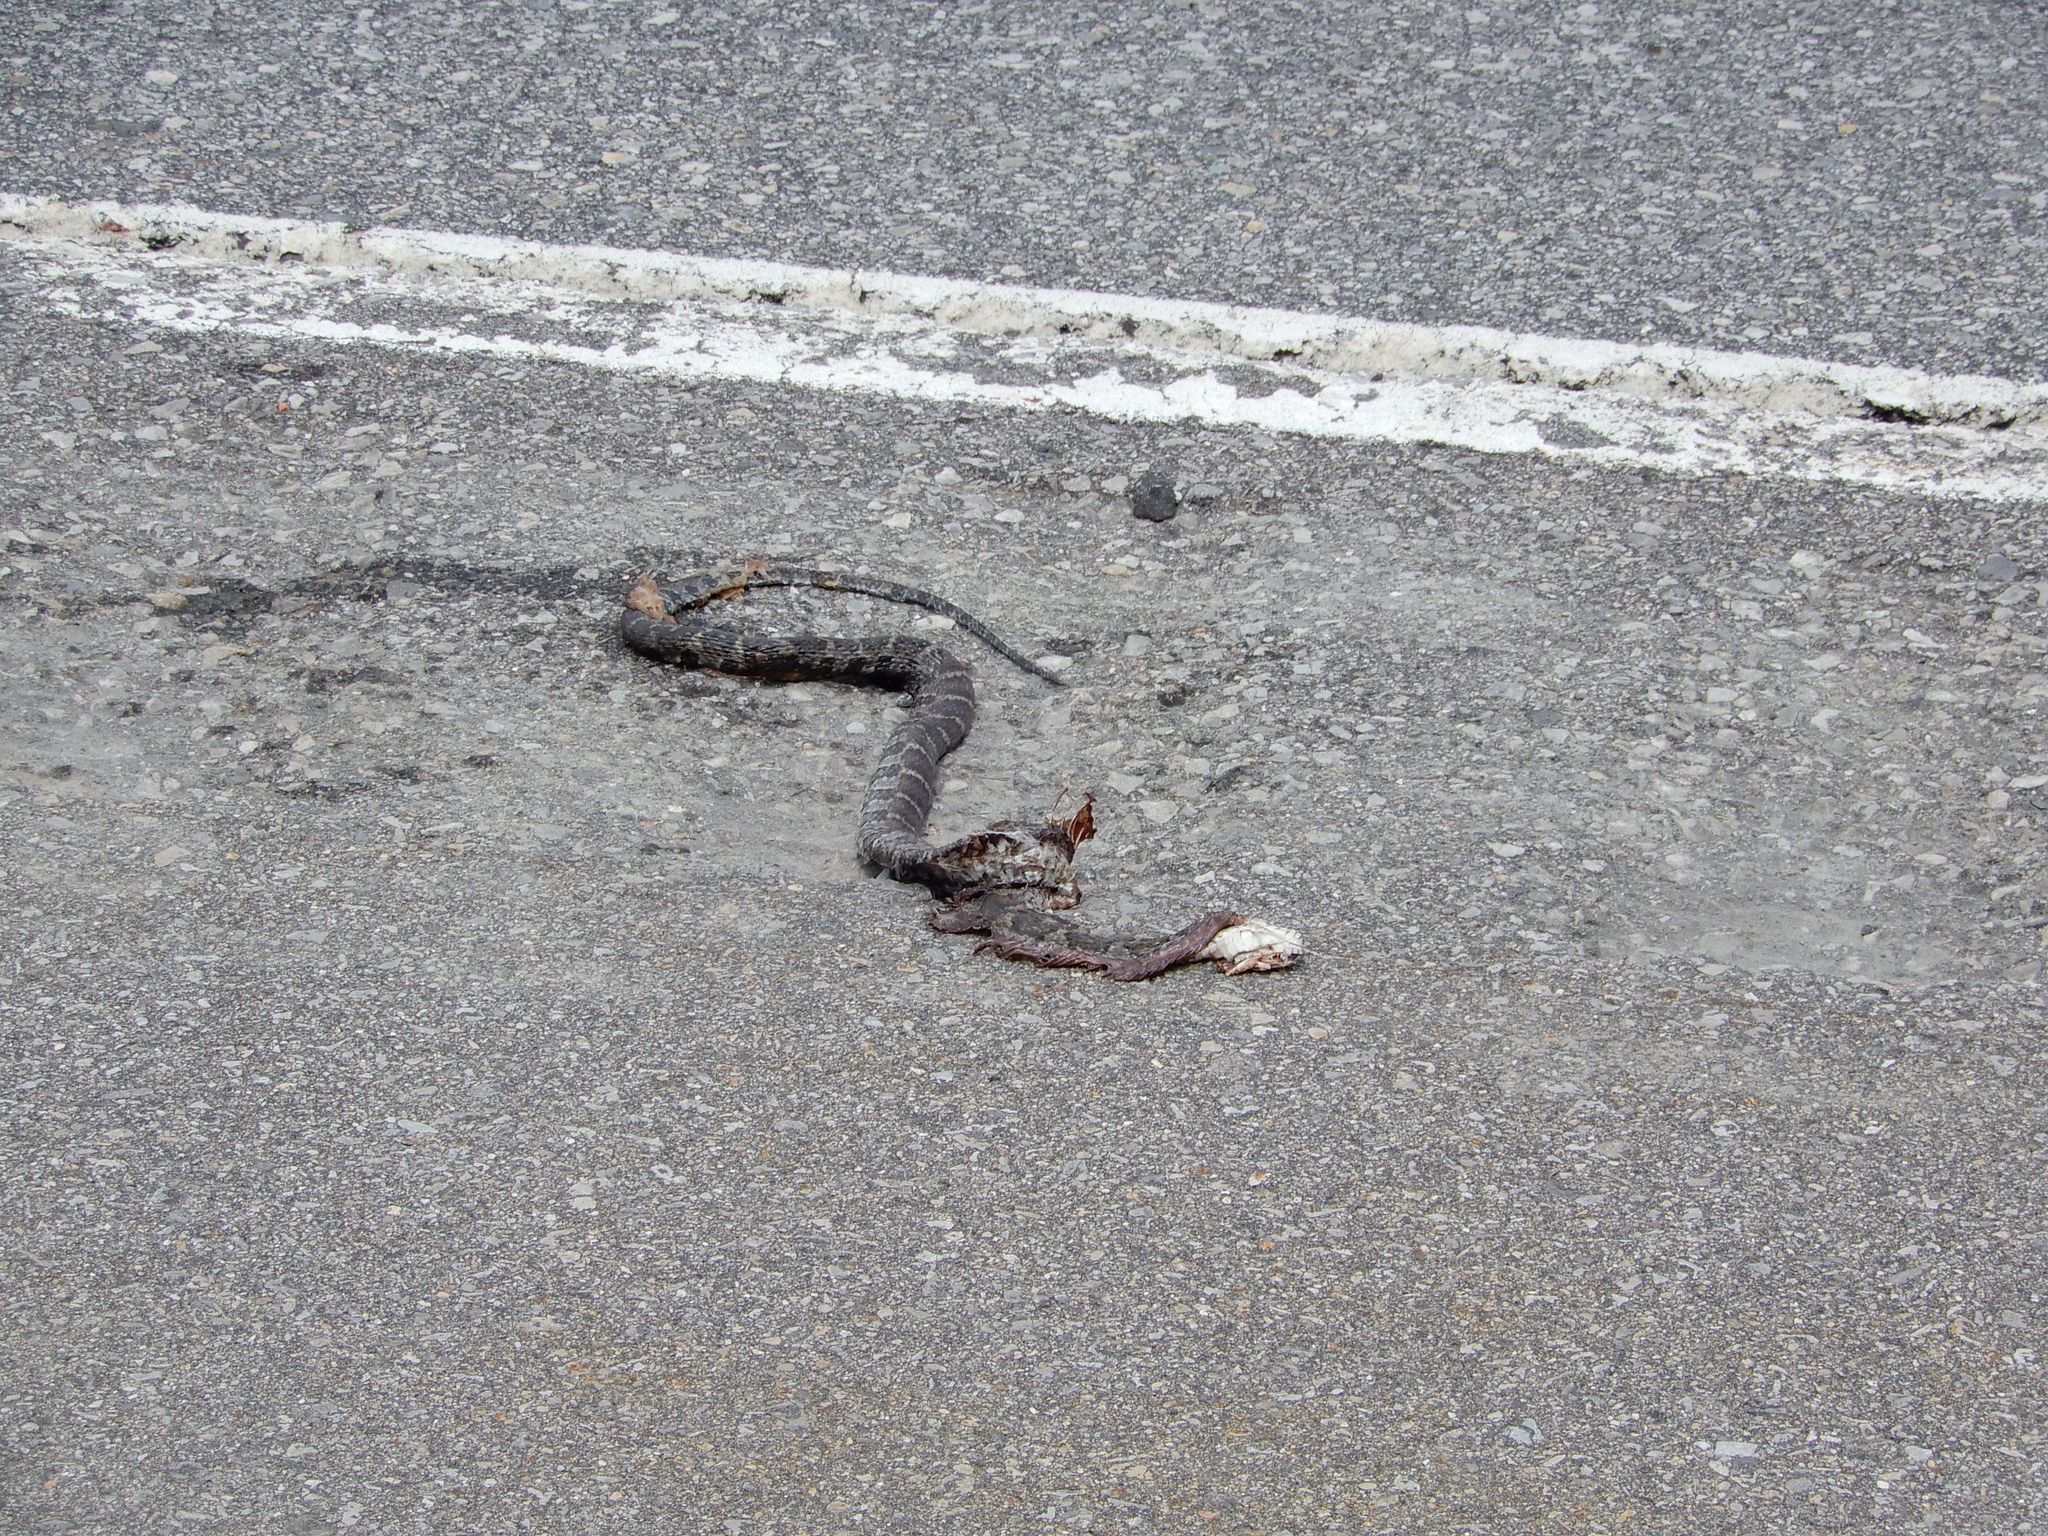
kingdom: Animalia
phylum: Chordata
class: Squamata
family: Colubridae
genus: Nerodia
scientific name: Nerodia sipedon
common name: Northern water snake
